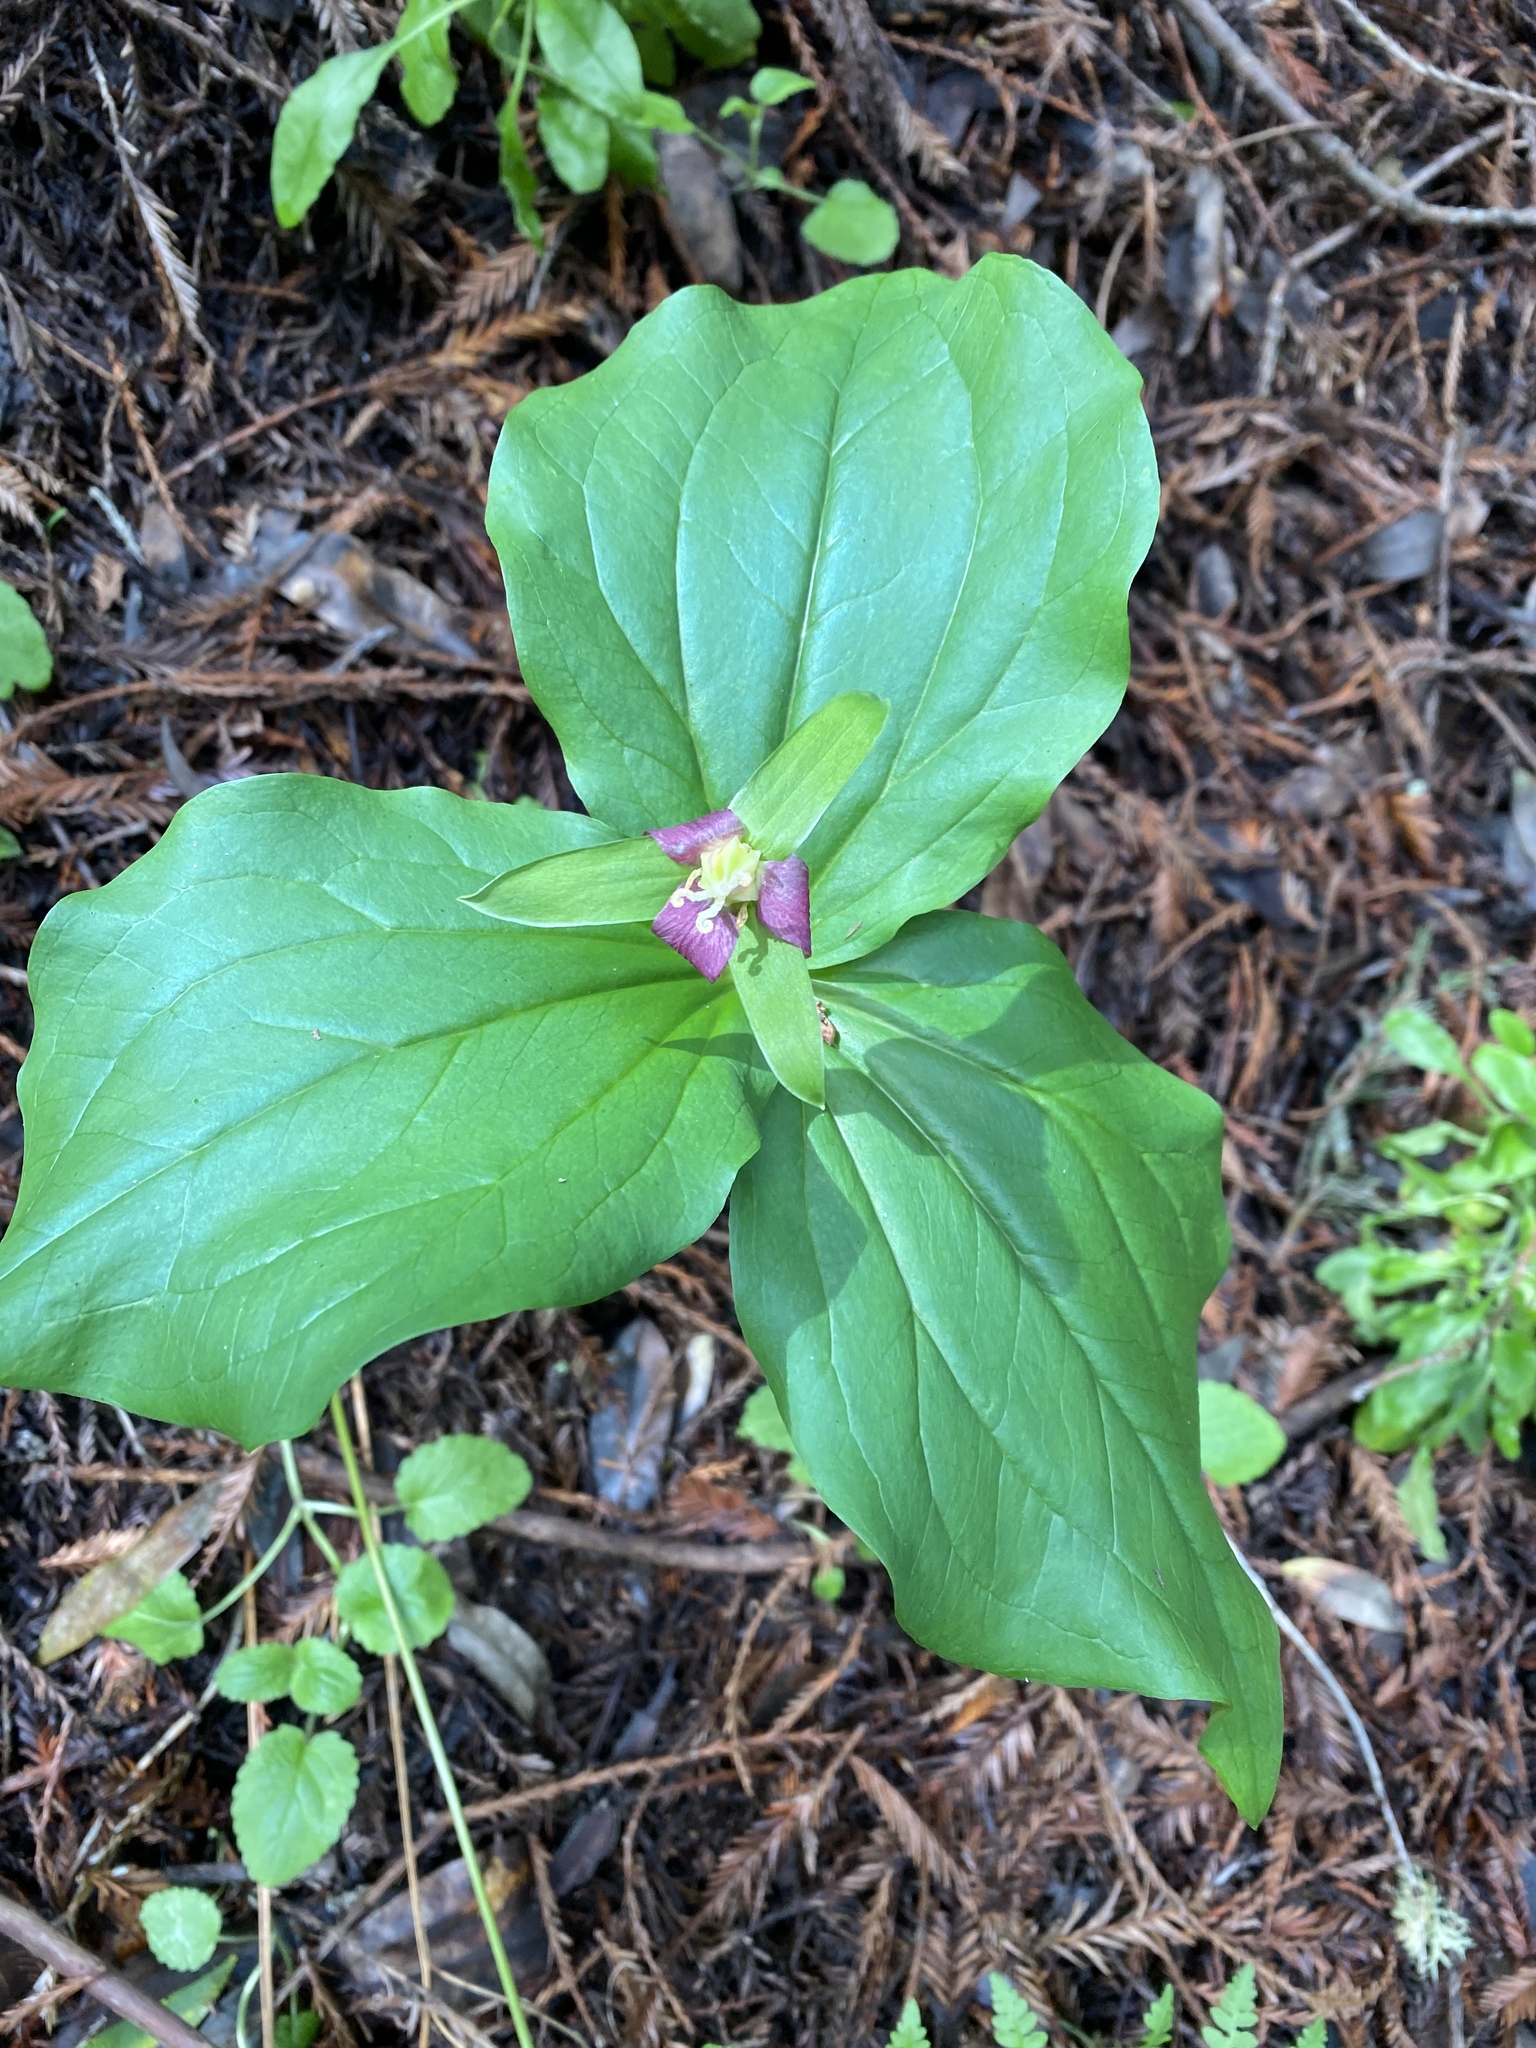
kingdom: Plantae
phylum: Tracheophyta
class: Liliopsida
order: Liliales
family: Melanthiaceae
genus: Trillium
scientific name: Trillium ovatum
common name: Pacific trillium
